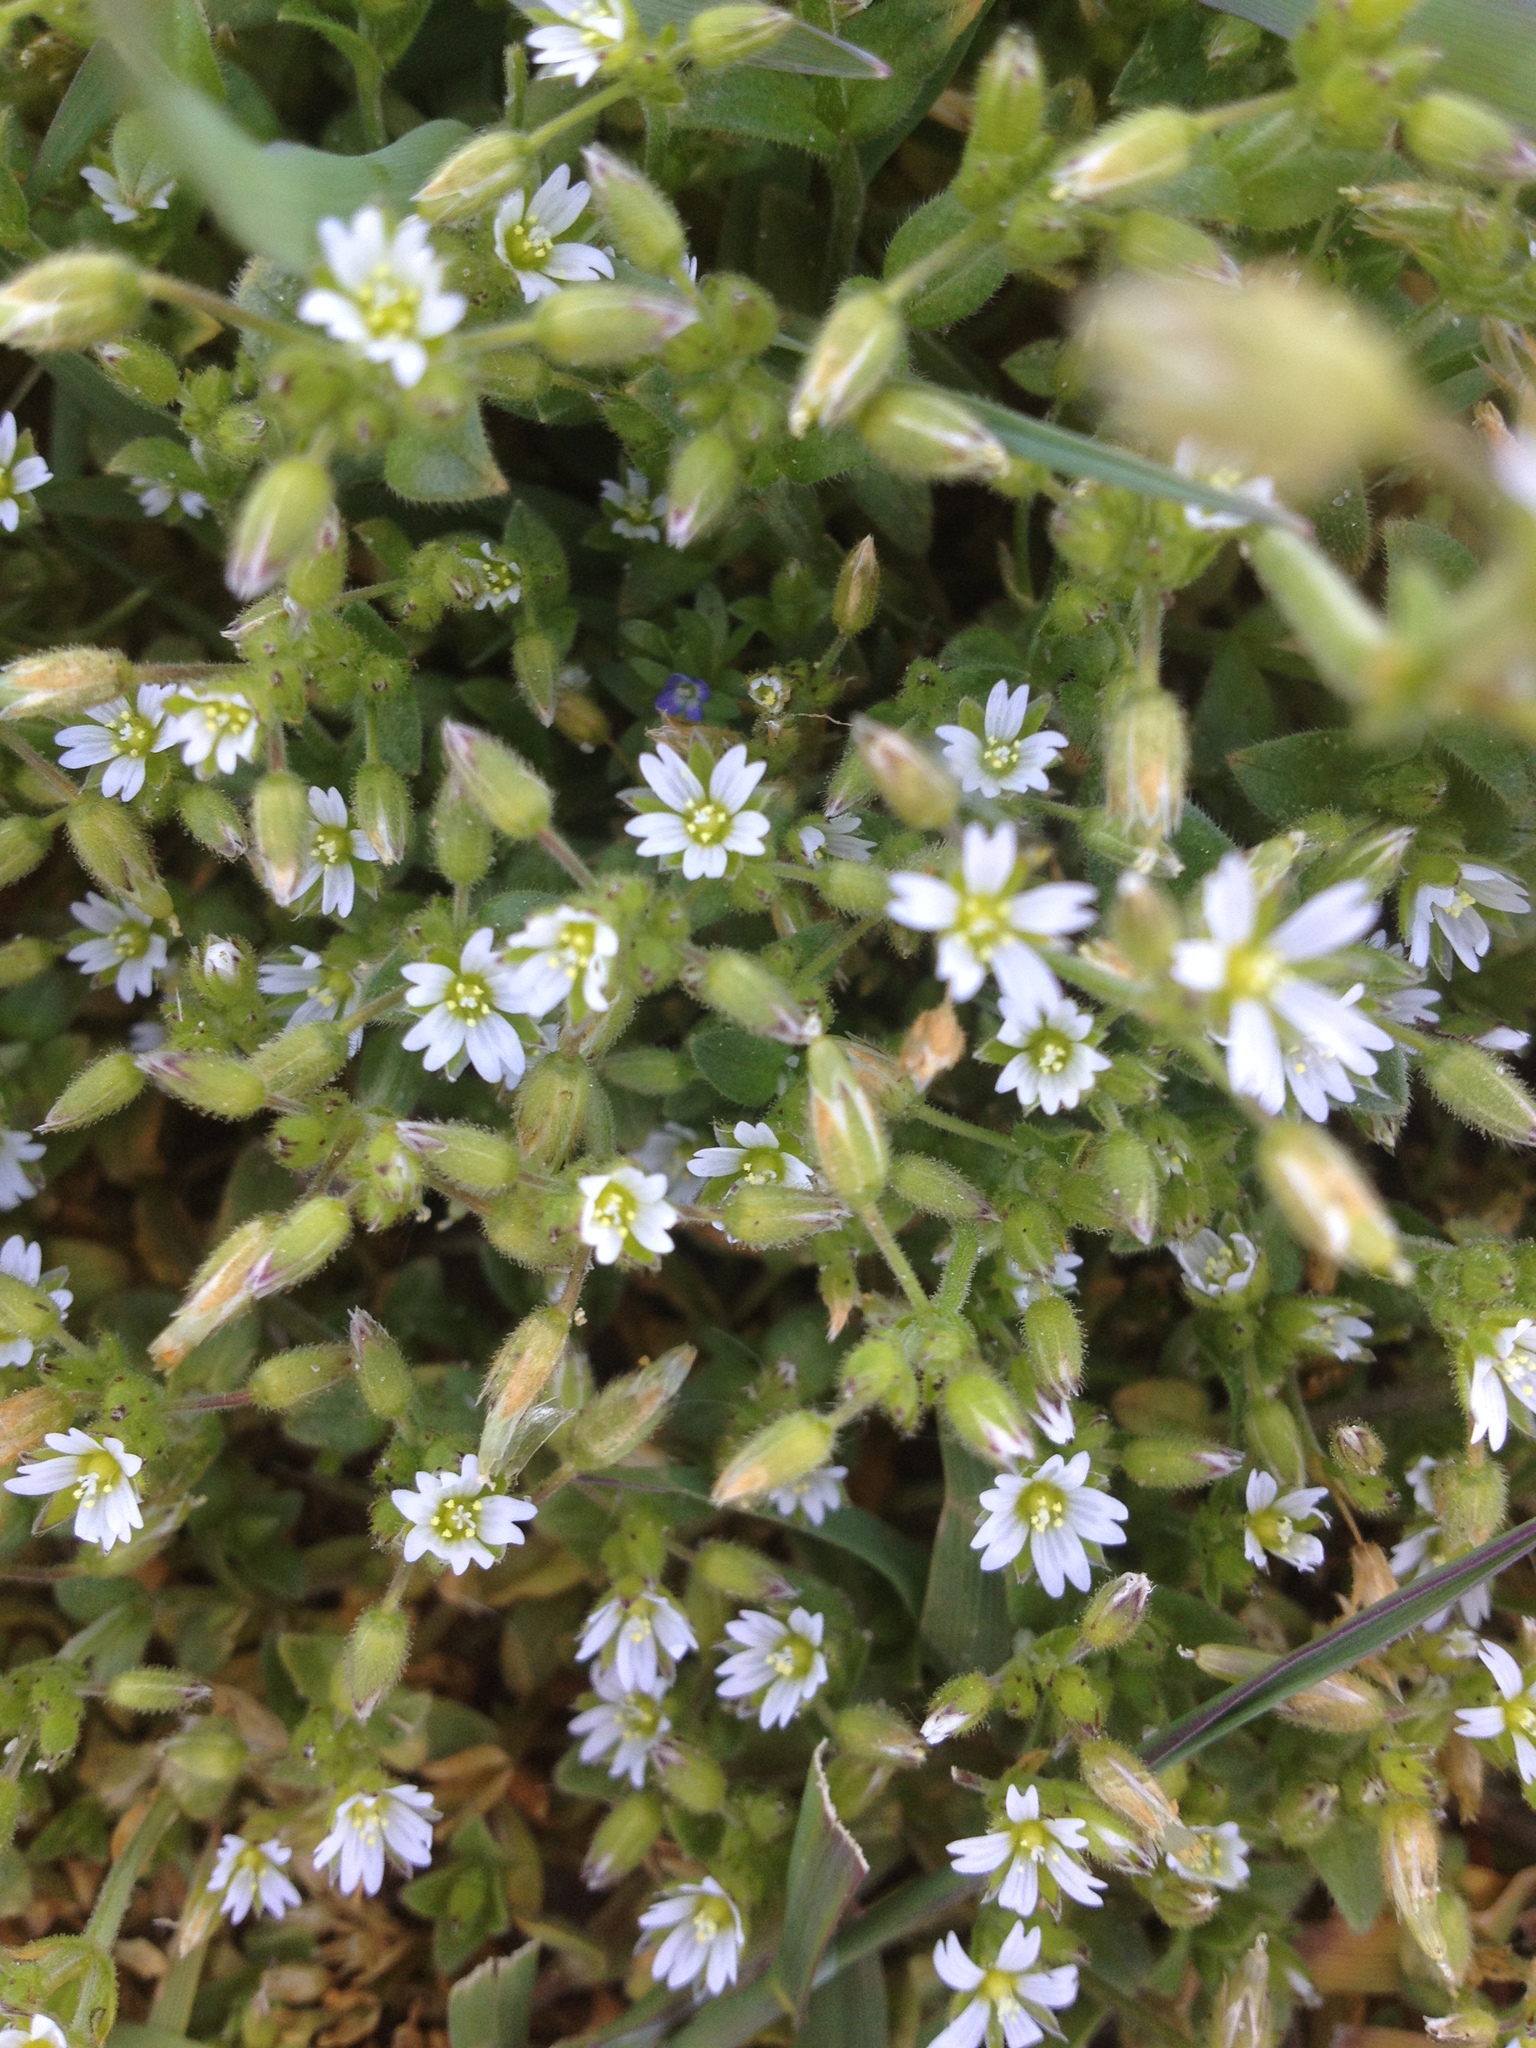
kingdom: Plantae
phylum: Tracheophyta
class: Magnoliopsida
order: Caryophyllales
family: Caryophyllaceae
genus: Cerastium
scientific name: Cerastium fontanum
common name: Common mouse-ear
